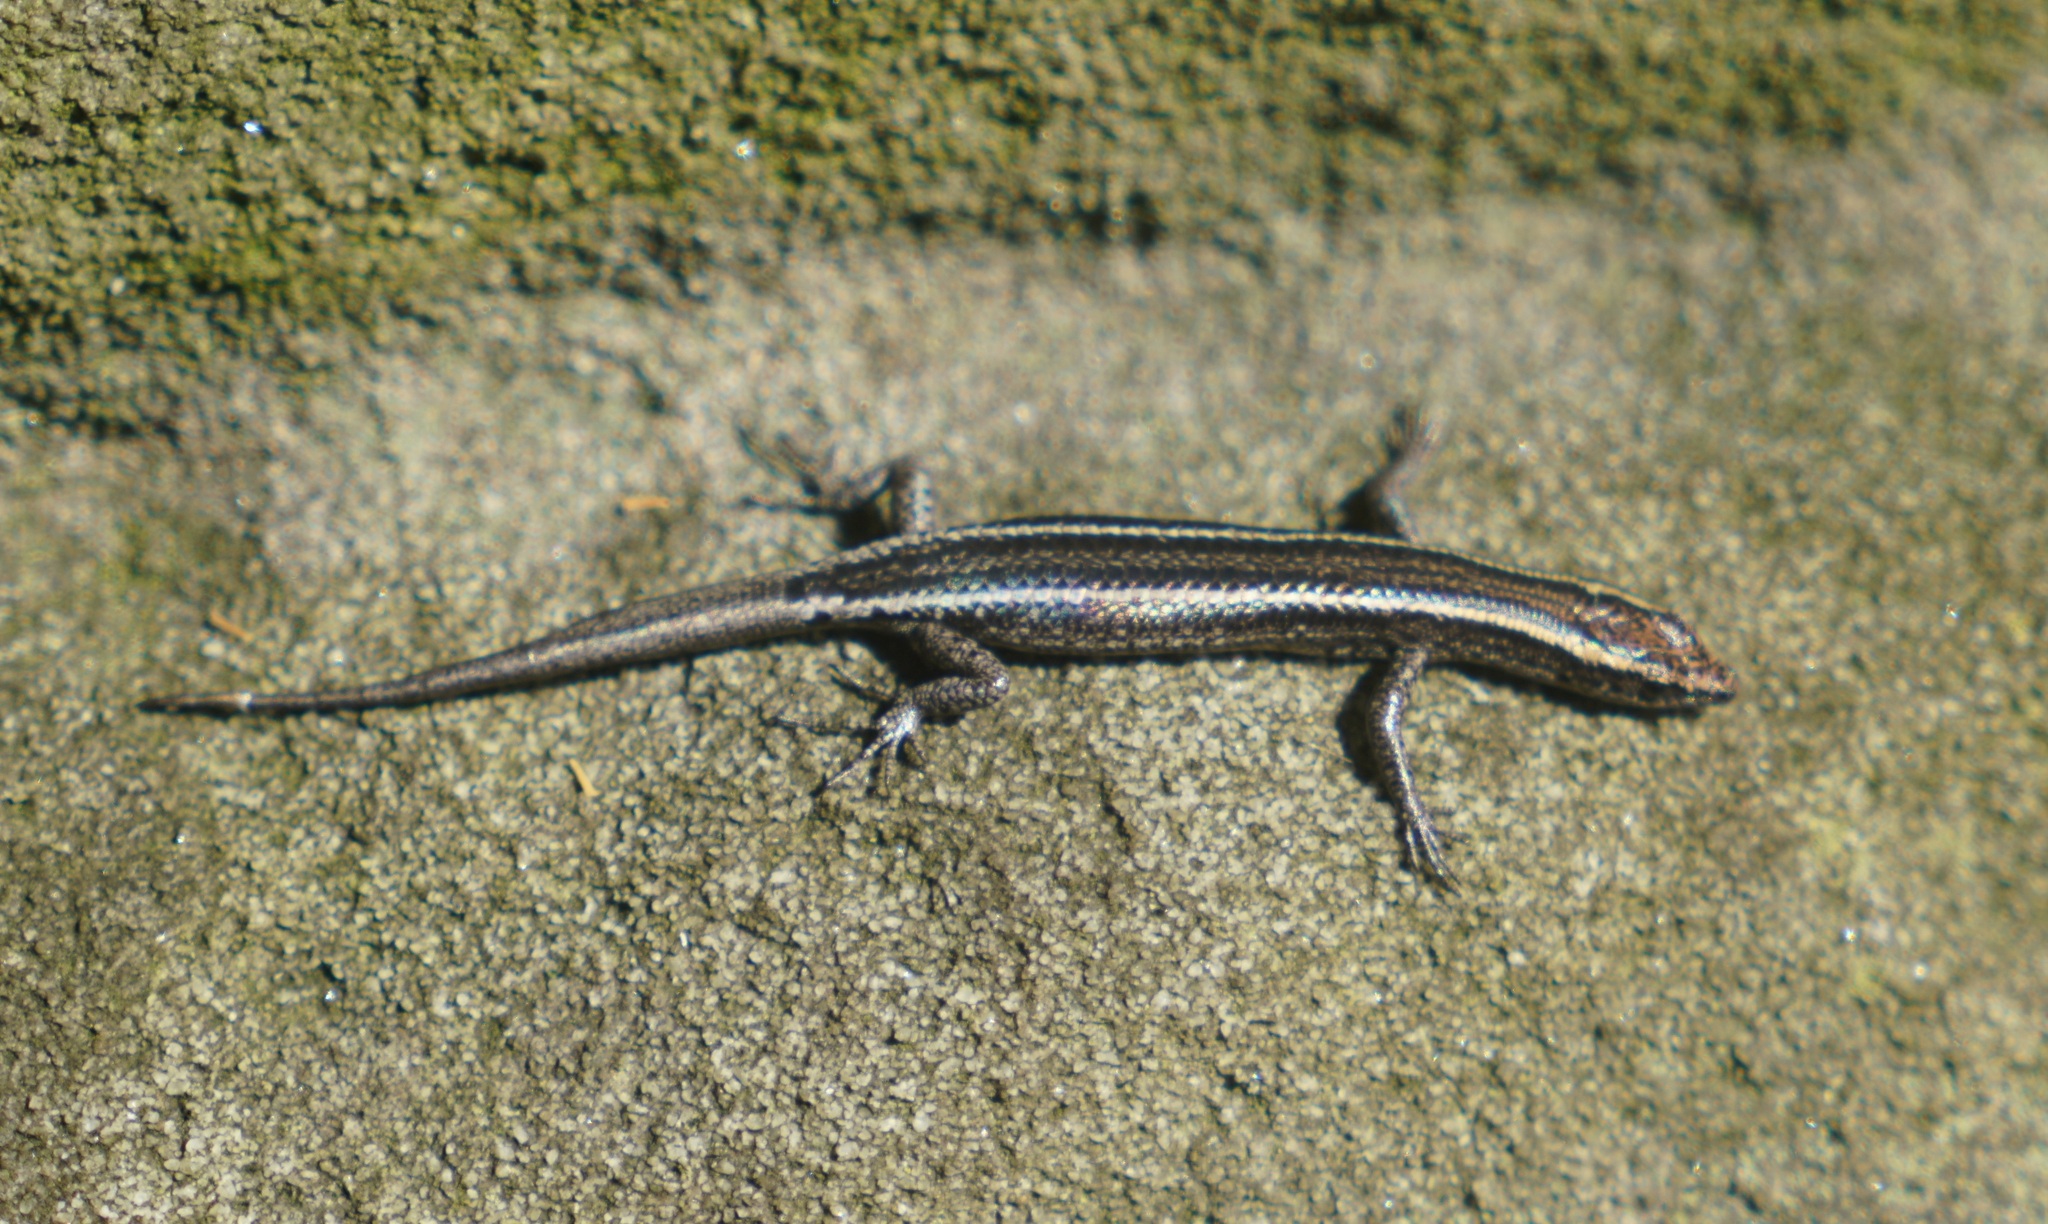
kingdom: Animalia
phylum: Chordata
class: Squamata
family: Scincidae
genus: Cryptoblepharus
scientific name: Cryptoblepharus pulcher
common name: Elegant snake-eyed skink
